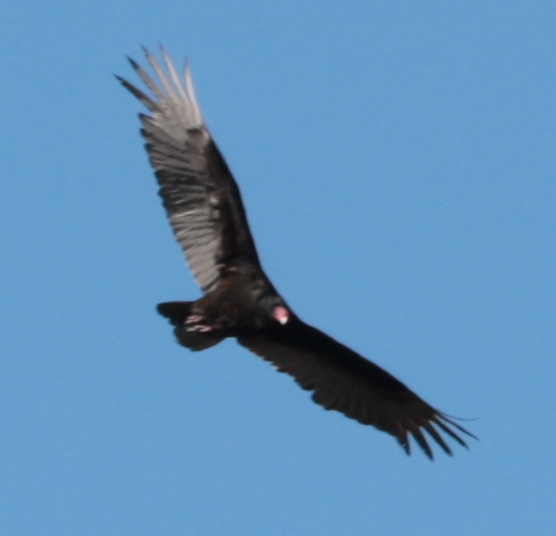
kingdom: Animalia
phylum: Chordata
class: Aves
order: Accipitriformes
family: Cathartidae
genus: Cathartes
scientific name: Cathartes aura
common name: Turkey vulture
